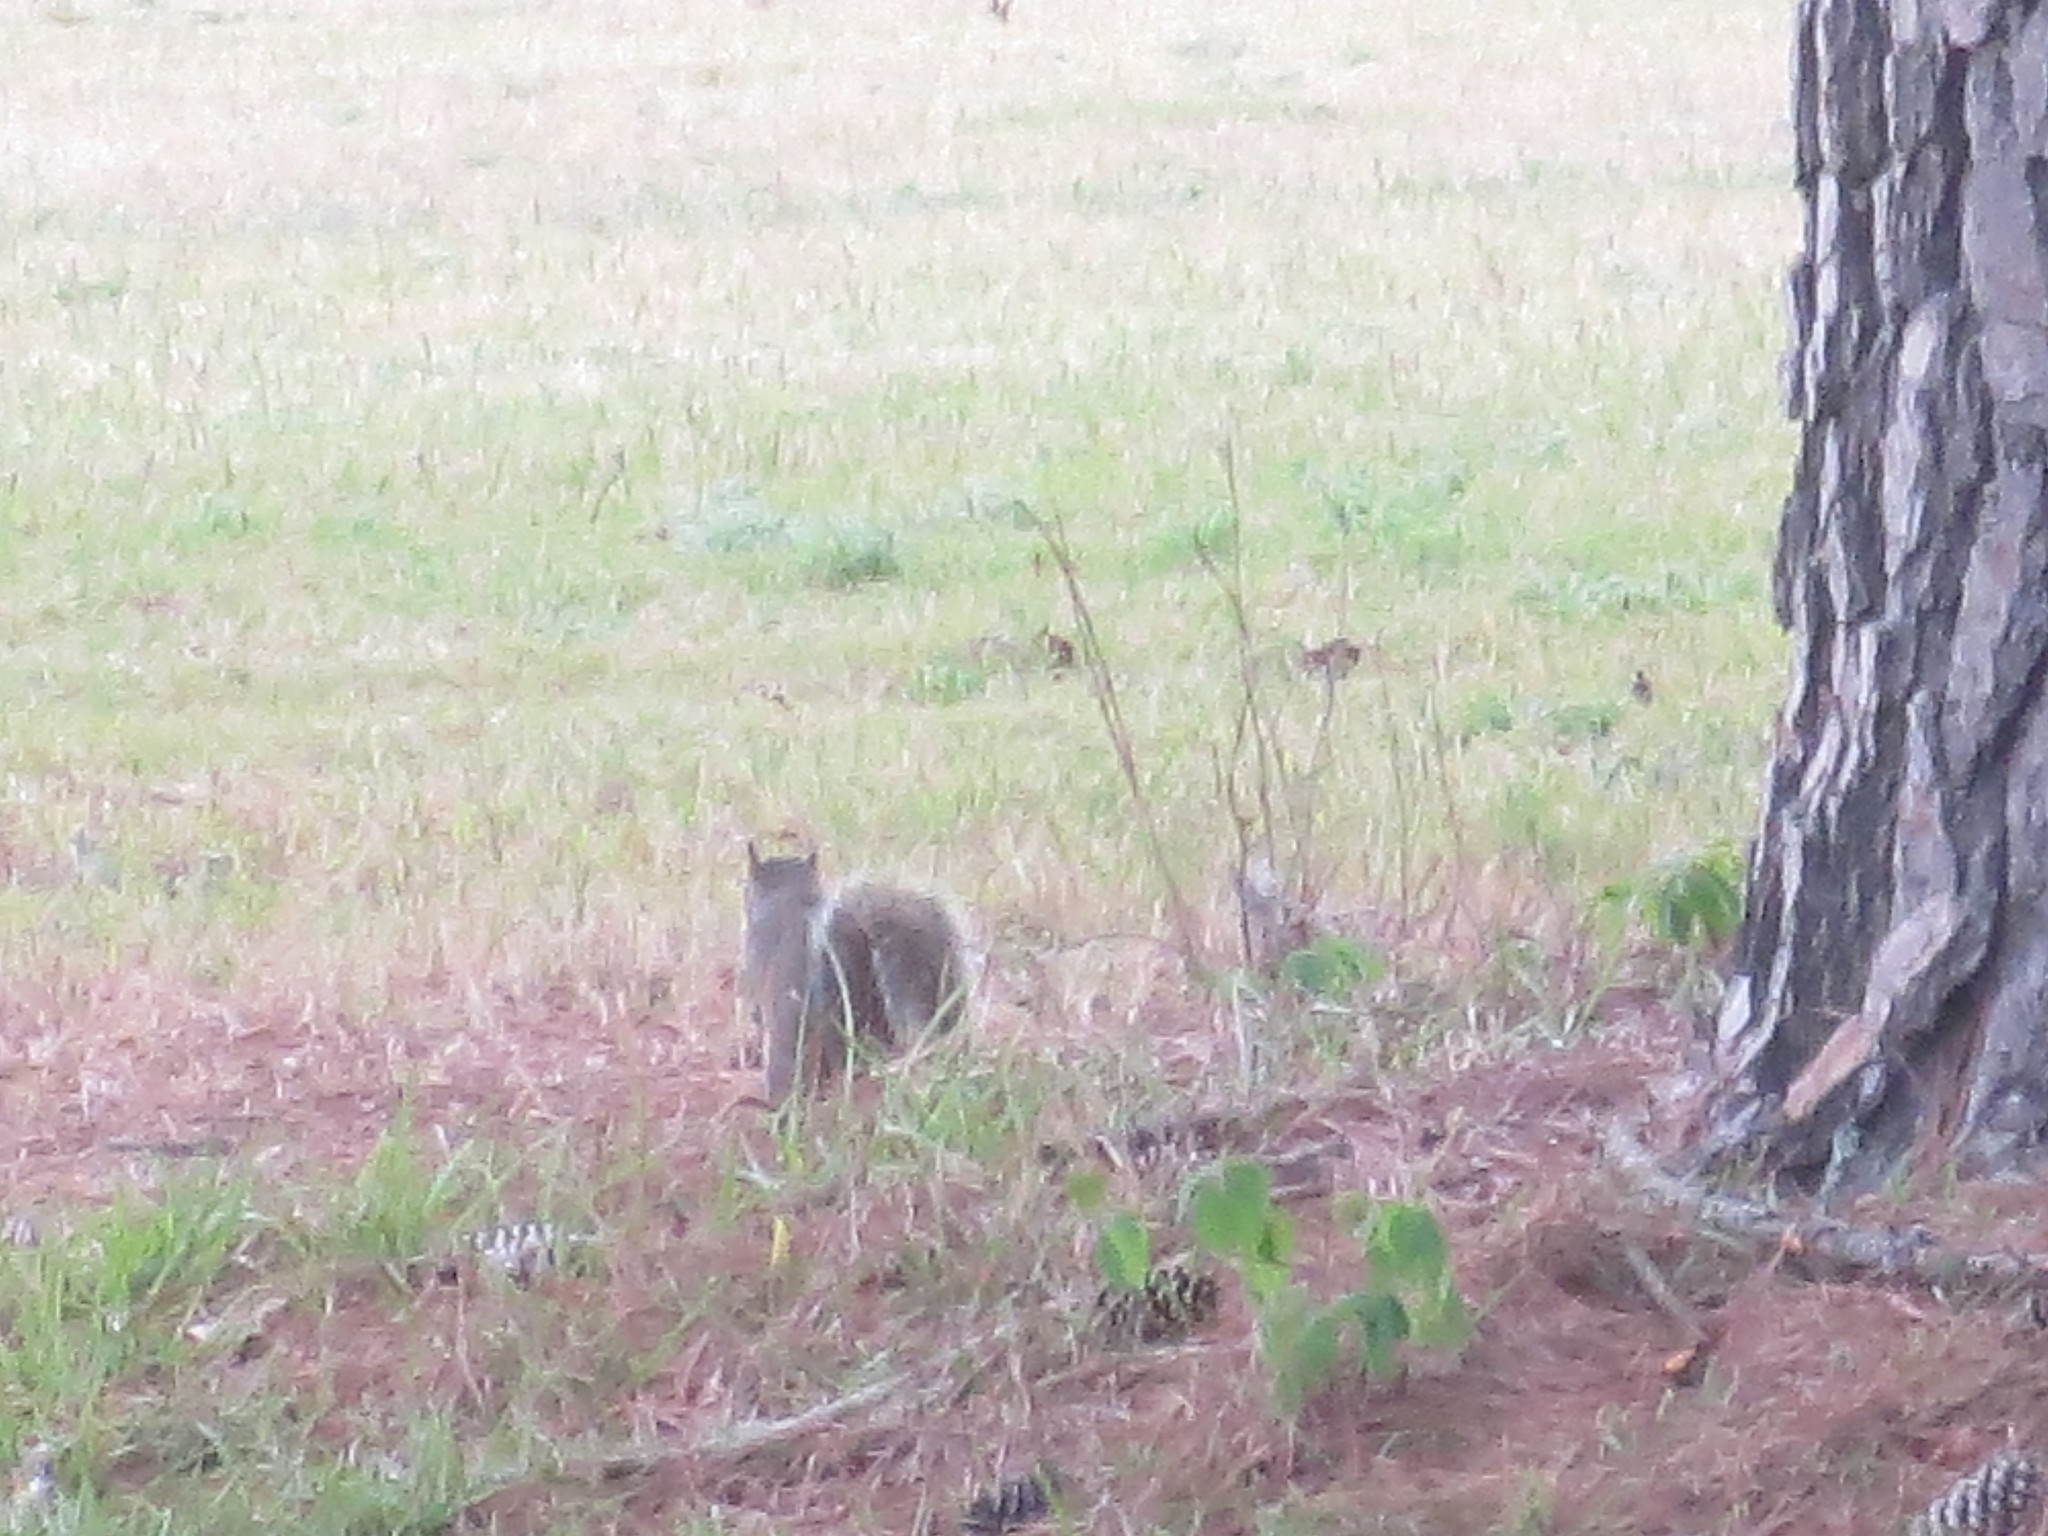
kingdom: Animalia
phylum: Chordata
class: Mammalia
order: Rodentia
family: Sciuridae
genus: Sciurus
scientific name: Sciurus carolinensis
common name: Eastern gray squirrel
